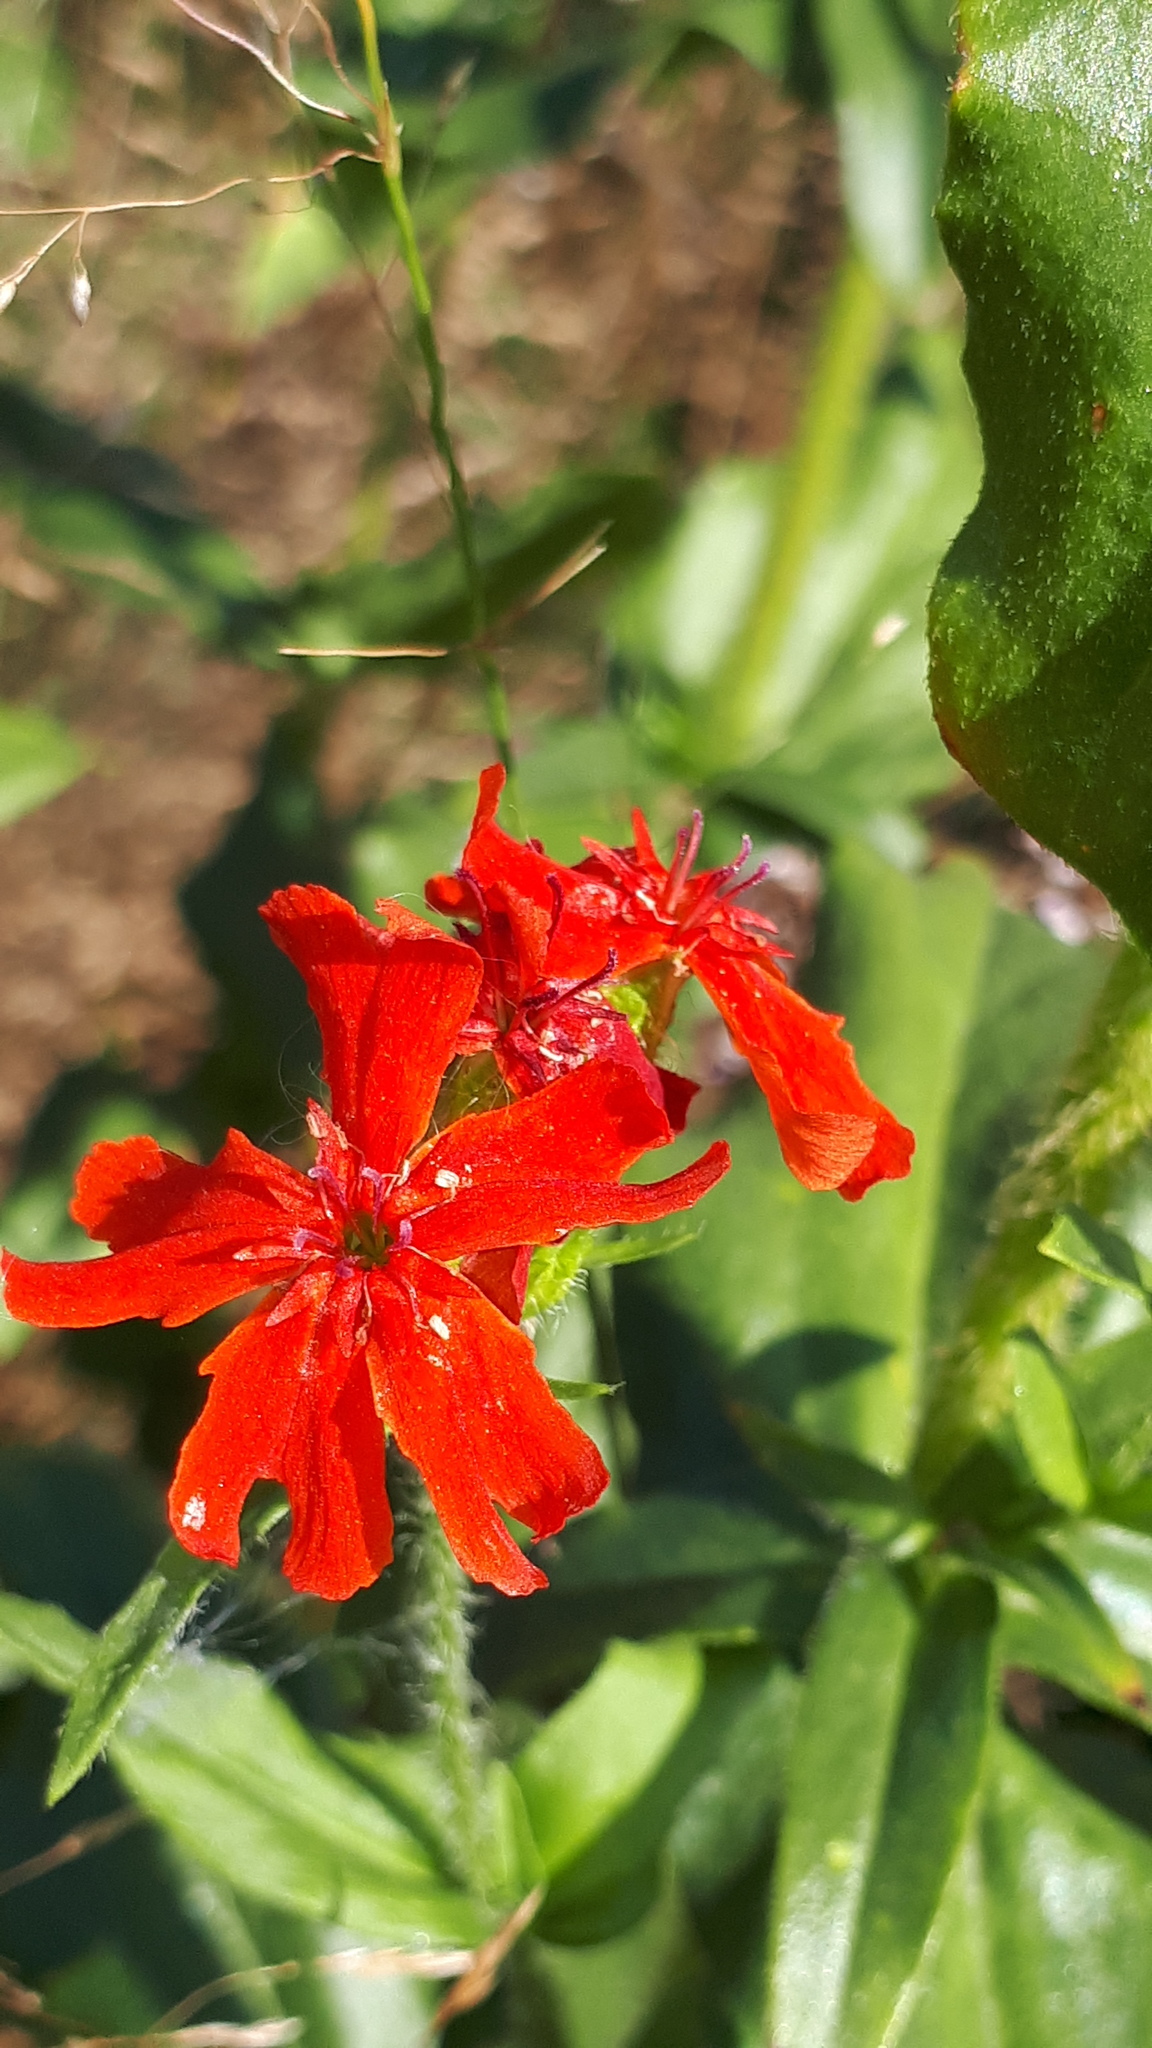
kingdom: Plantae
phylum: Tracheophyta
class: Magnoliopsida
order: Caryophyllales
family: Caryophyllaceae
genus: Silene
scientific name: Silene chalcedonica
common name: Maltese-cross
